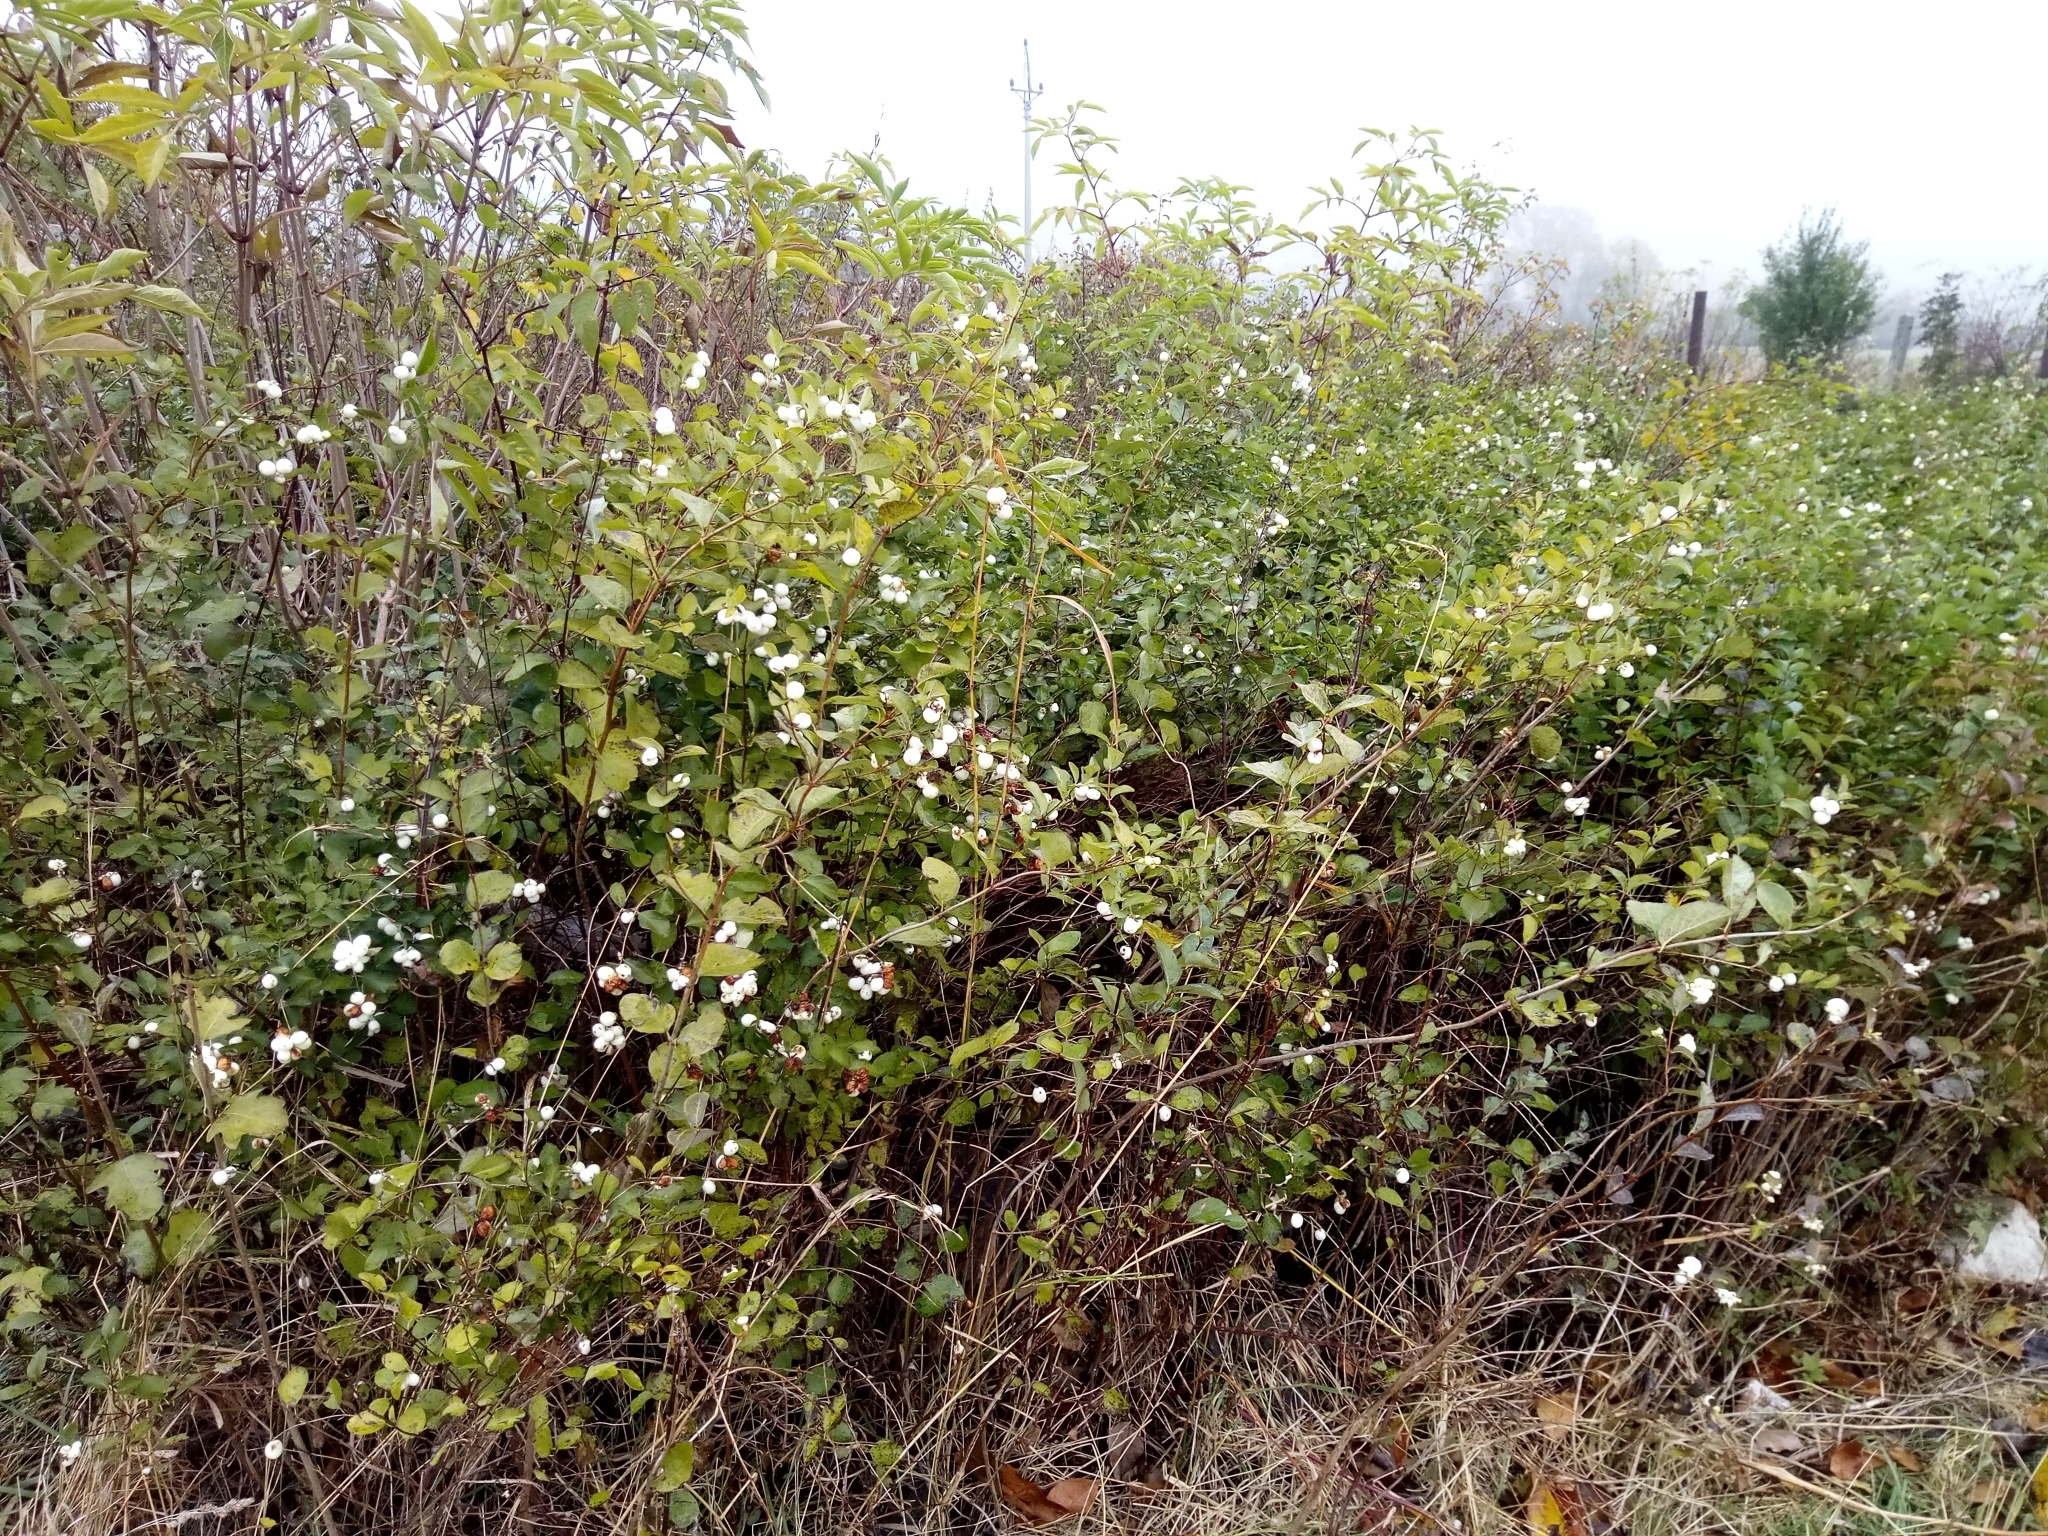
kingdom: Plantae
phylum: Tracheophyta
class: Magnoliopsida
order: Dipsacales
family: Caprifoliaceae
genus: Symphoricarpos
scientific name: Symphoricarpos albus
